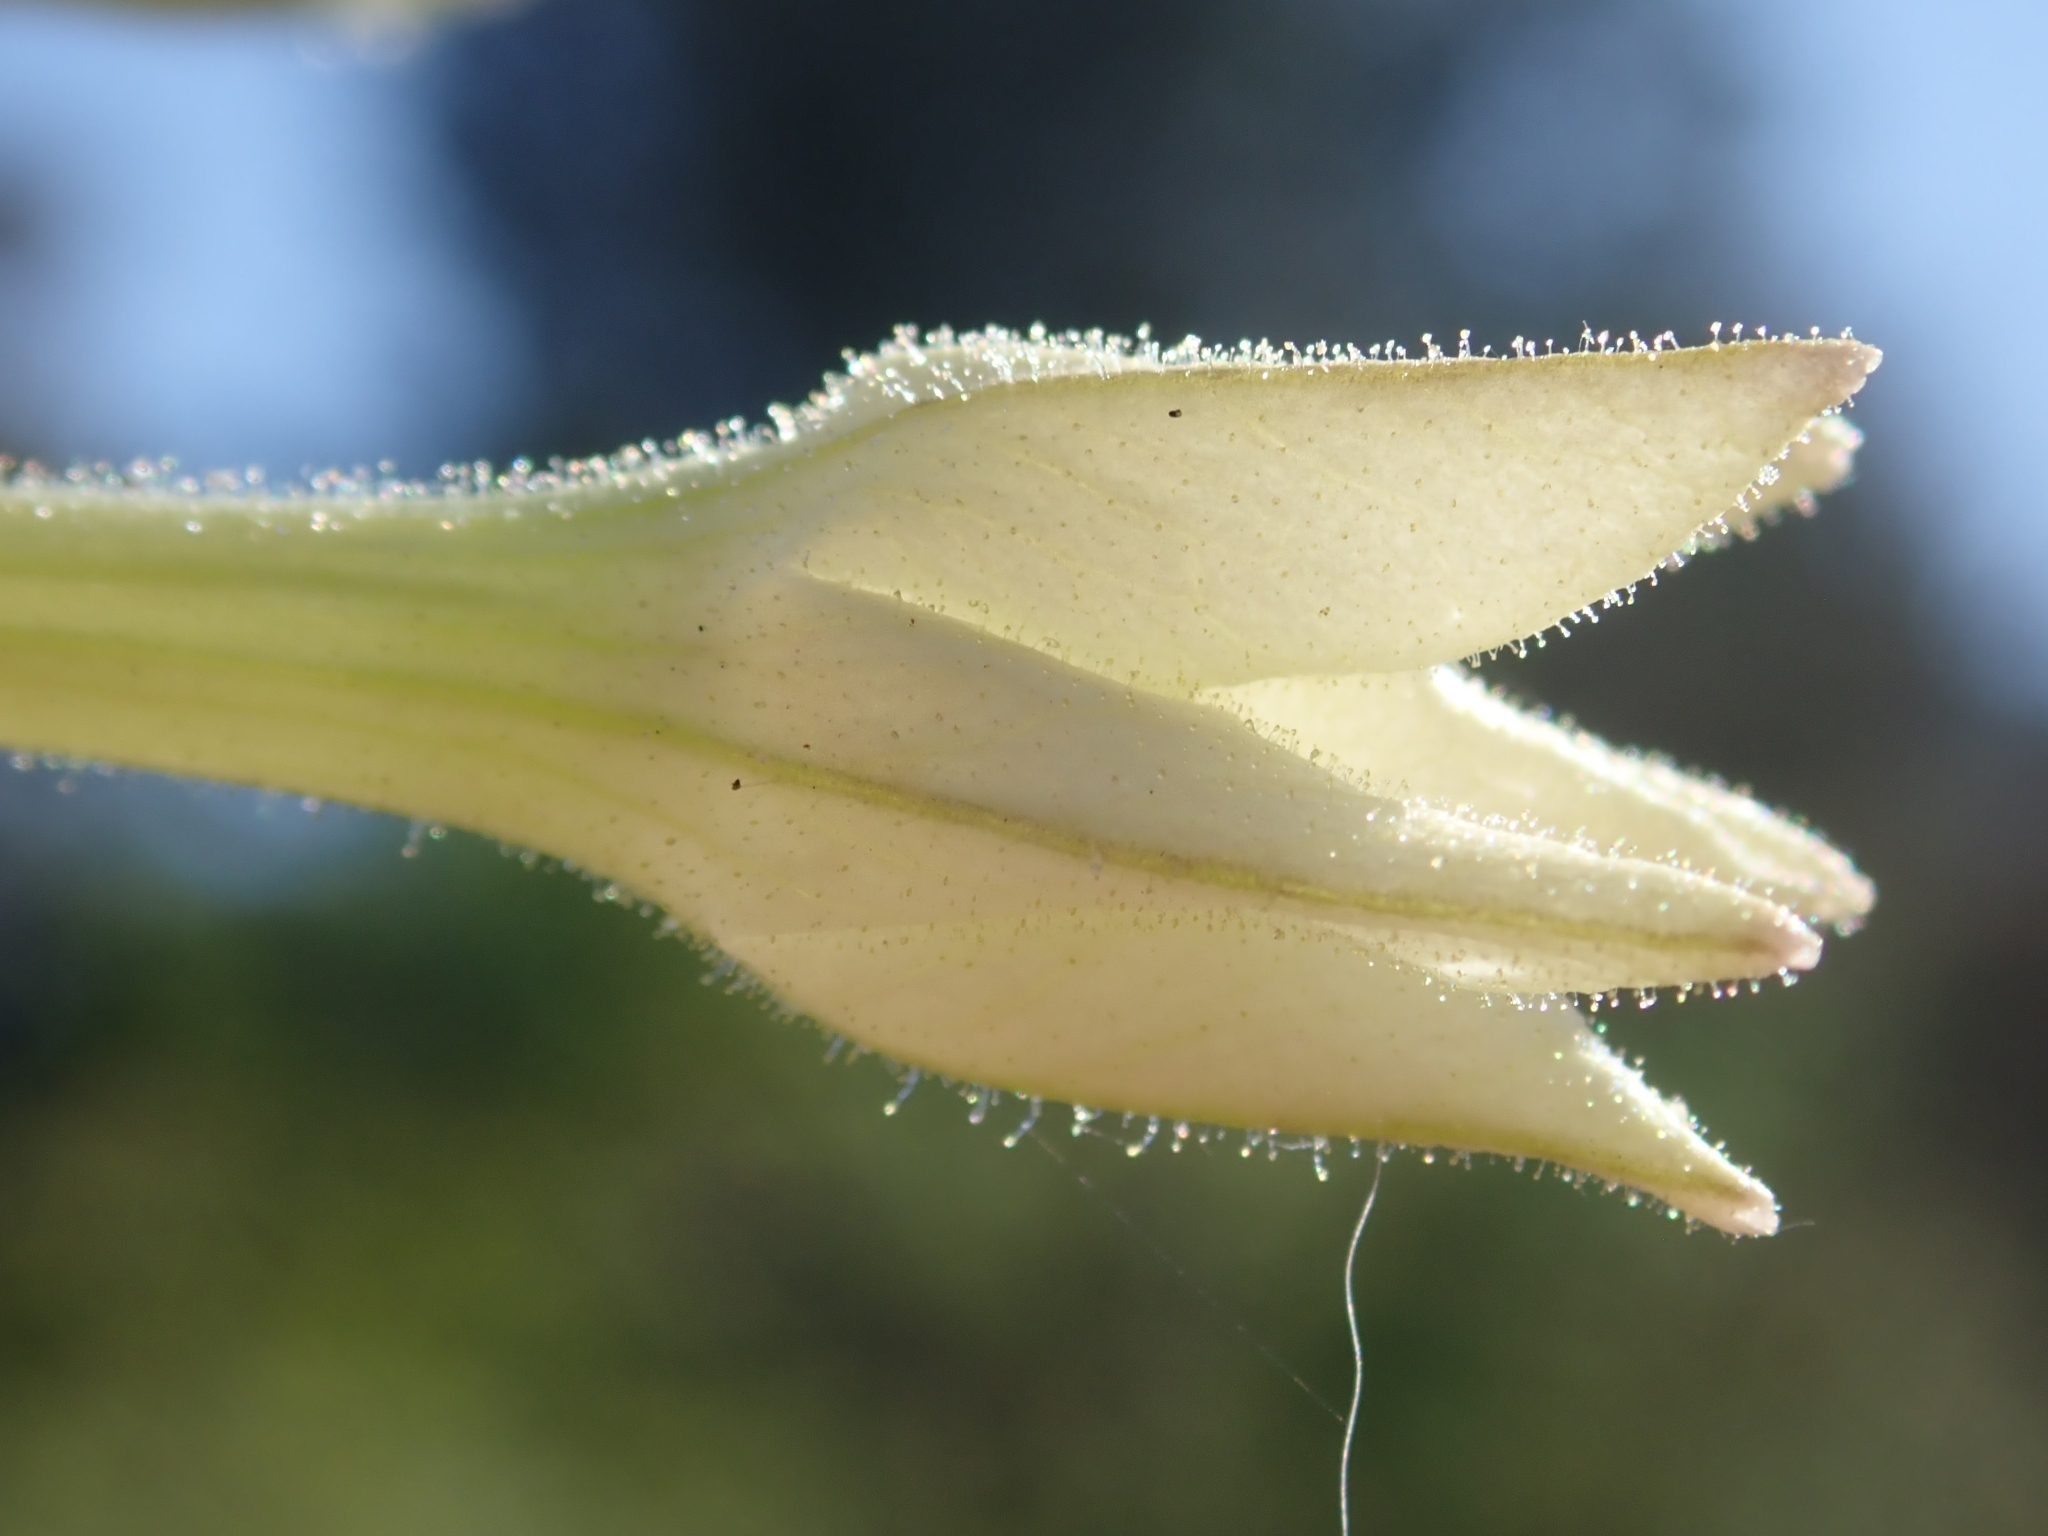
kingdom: Plantae
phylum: Tracheophyta
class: Magnoliopsida
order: Solanales
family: Solanaceae
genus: Nicotiana
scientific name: Nicotiana quadrivalvis
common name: Indian tobacco
